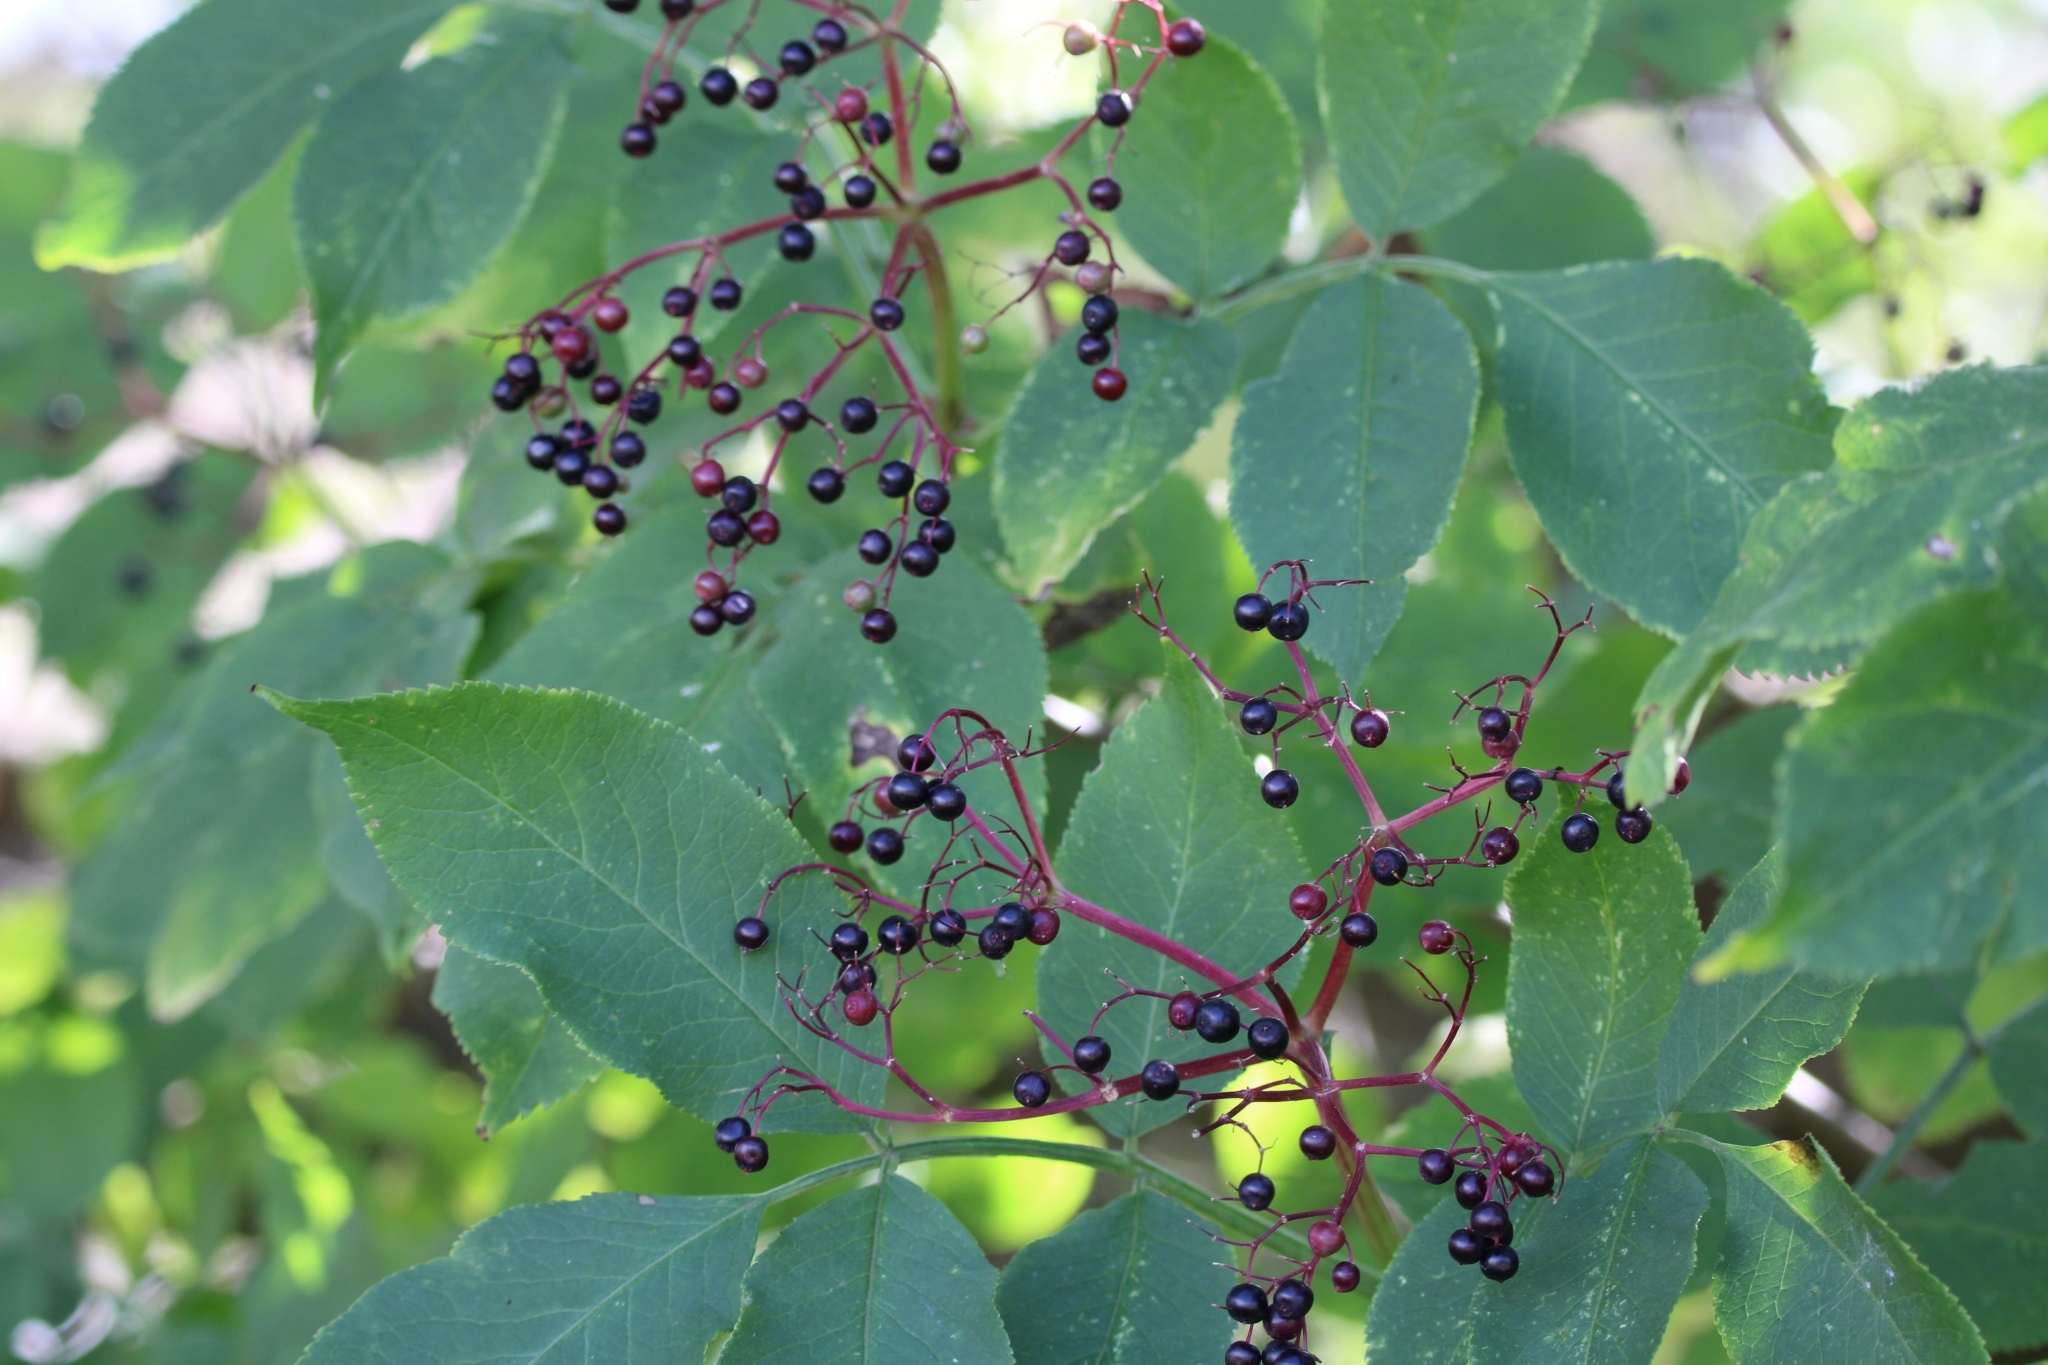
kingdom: Plantae
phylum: Tracheophyta
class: Magnoliopsida
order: Dipsacales
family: Viburnaceae
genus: Sambucus
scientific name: Sambucus nigra
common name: Elder
